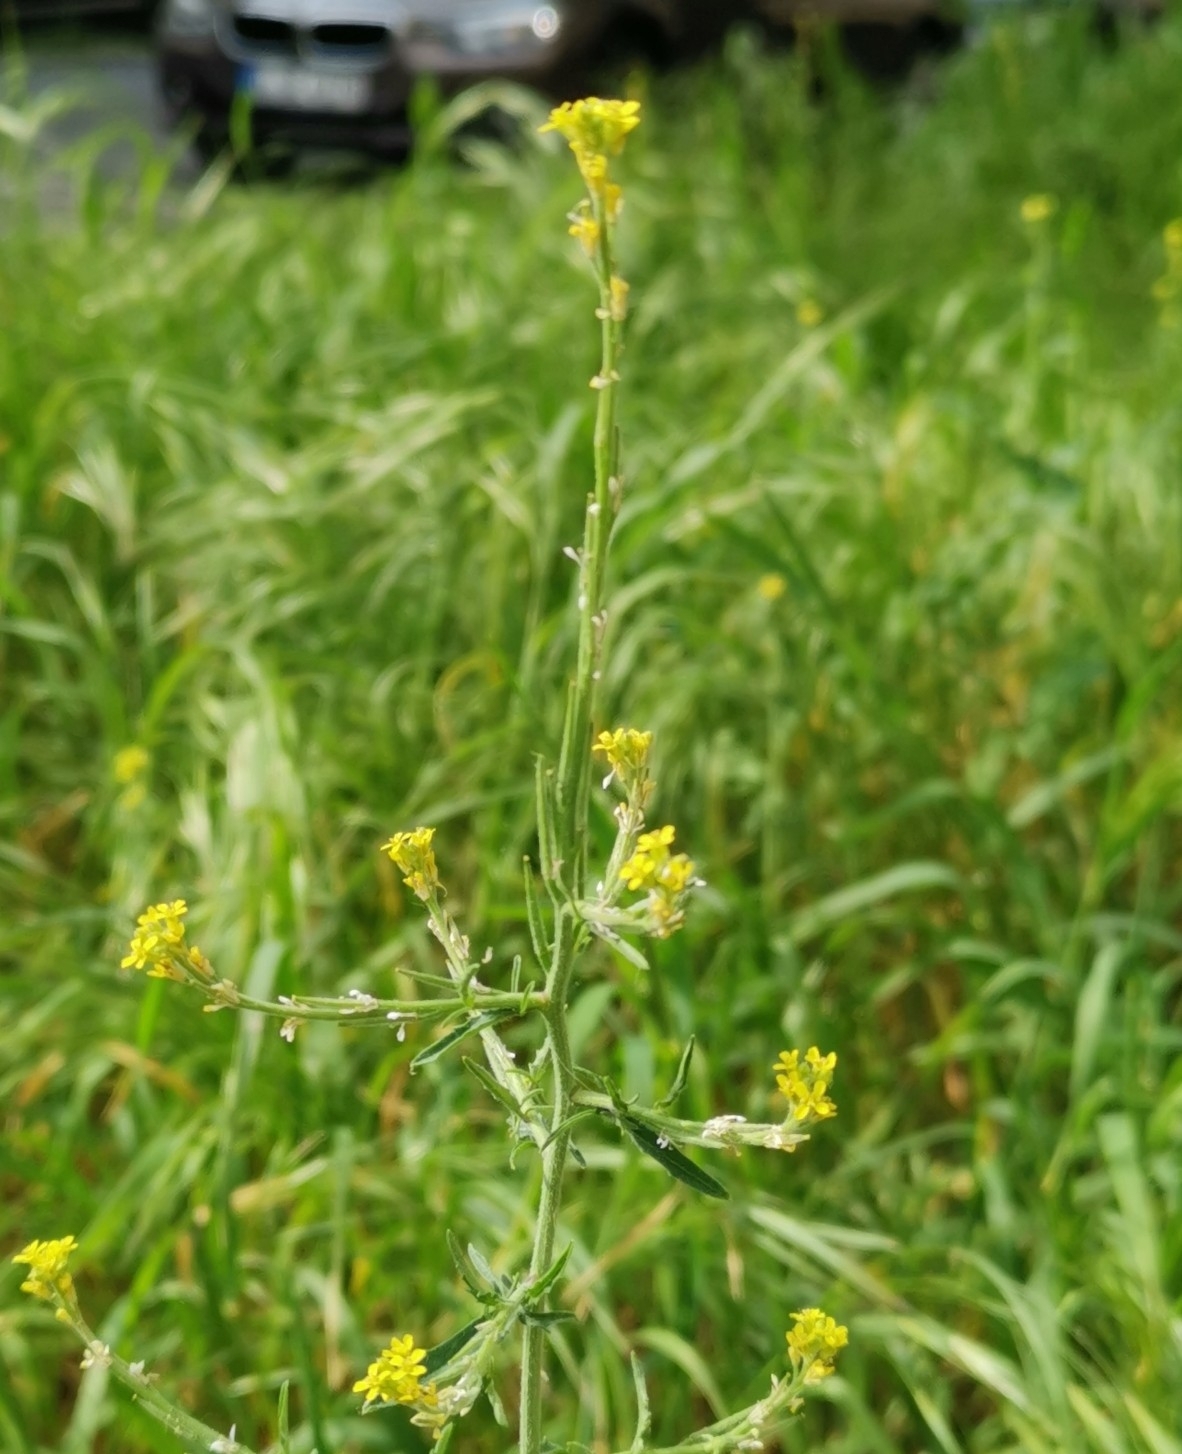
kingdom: Plantae
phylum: Tracheophyta
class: Magnoliopsida
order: Brassicales
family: Brassicaceae
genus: Sisymbrium
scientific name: Sisymbrium officinale
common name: Hedge mustard
